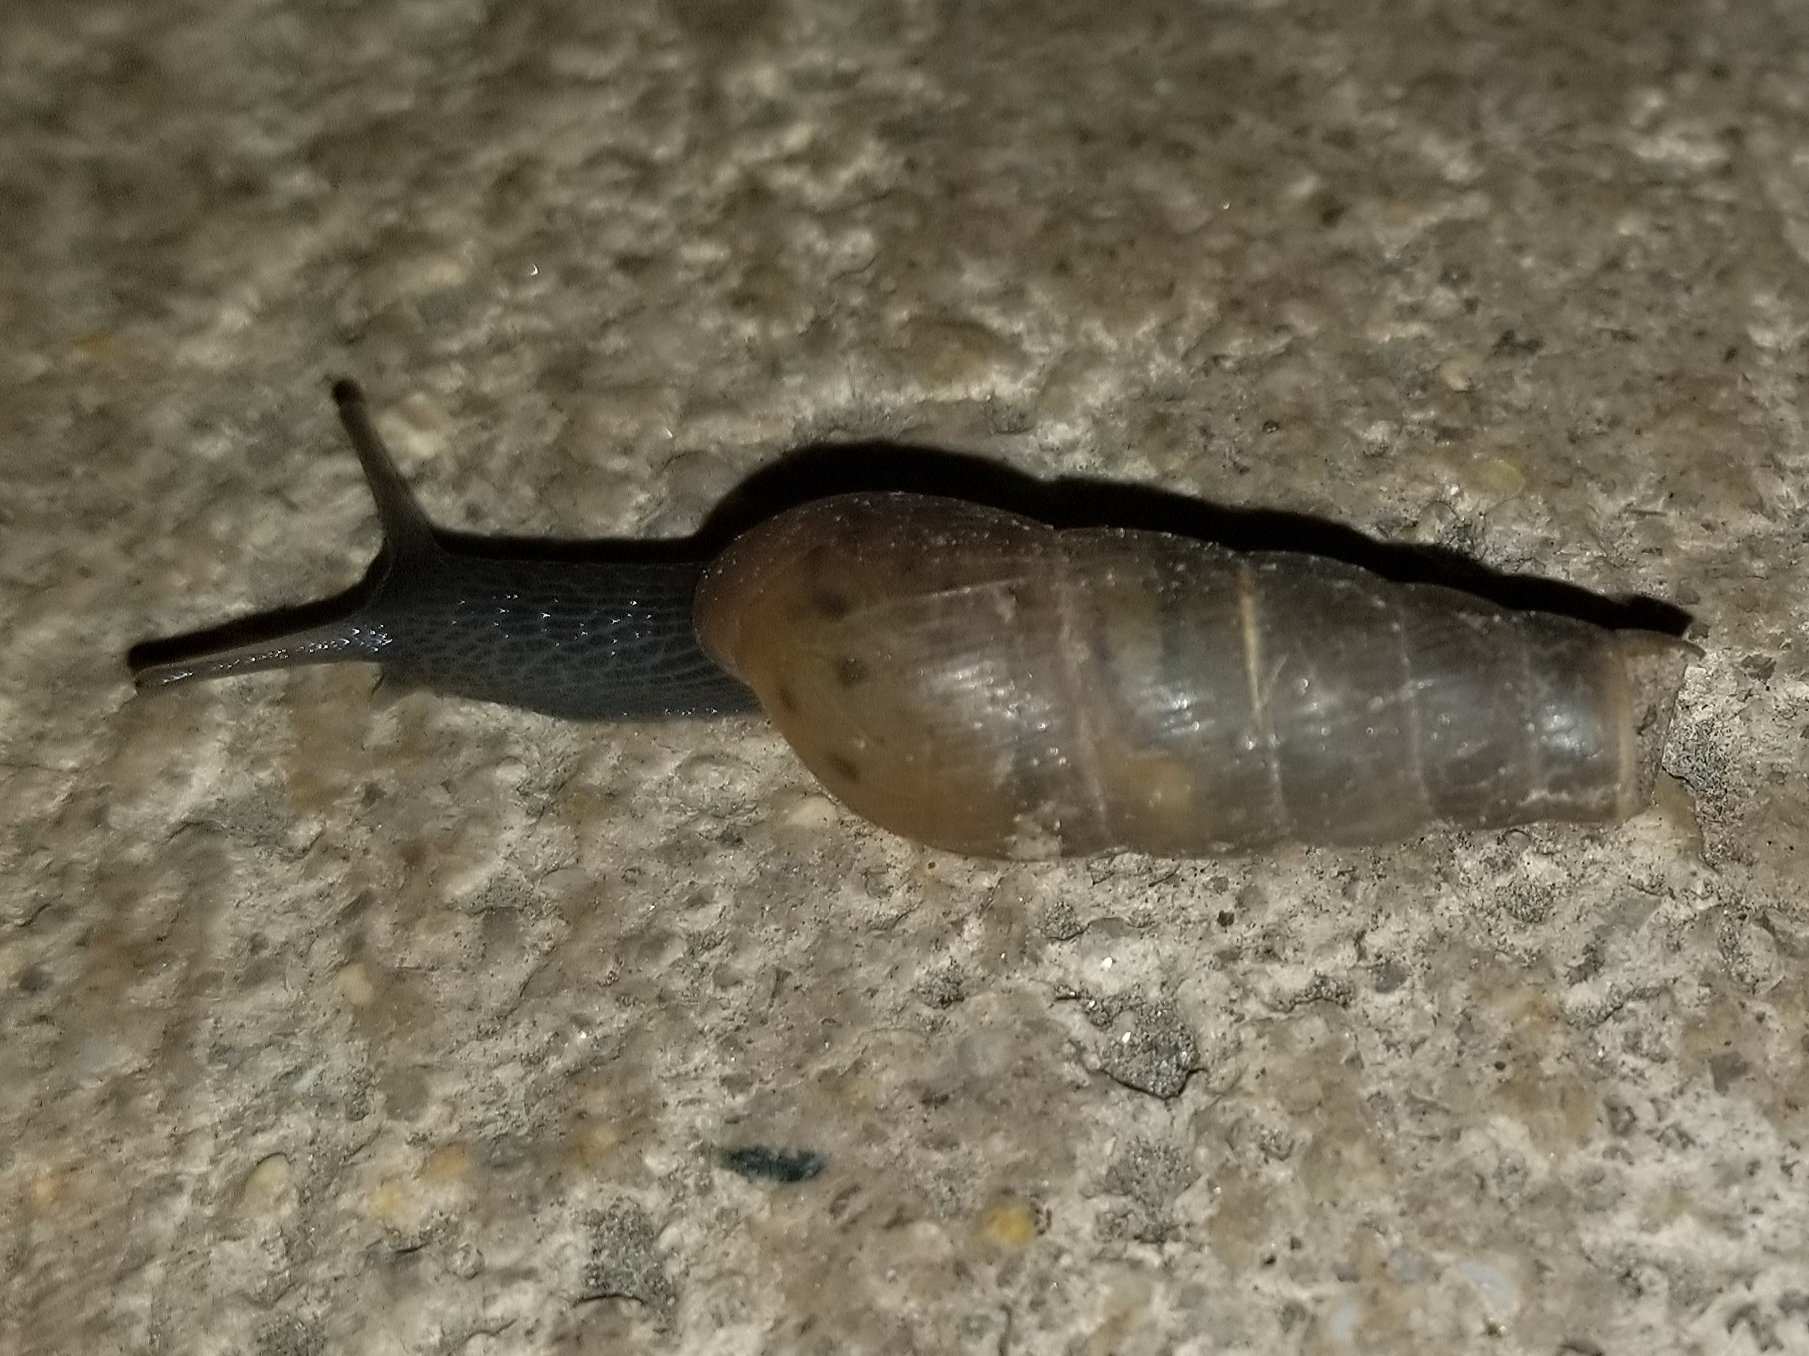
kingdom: Animalia
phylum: Mollusca
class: Gastropoda
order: Stylommatophora
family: Achatinidae
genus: Rumina
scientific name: Rumina decollata
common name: Decollate snail
